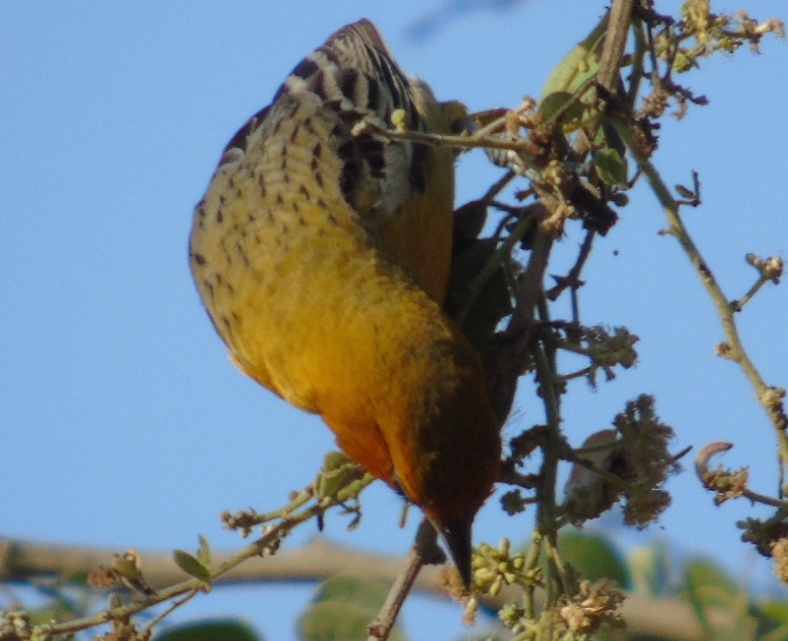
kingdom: Animalia
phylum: Chordata
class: Aves
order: Passeriformes
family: Icteridae
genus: Icterus
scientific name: Icterus pustulatus
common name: Streak-backed oriole
